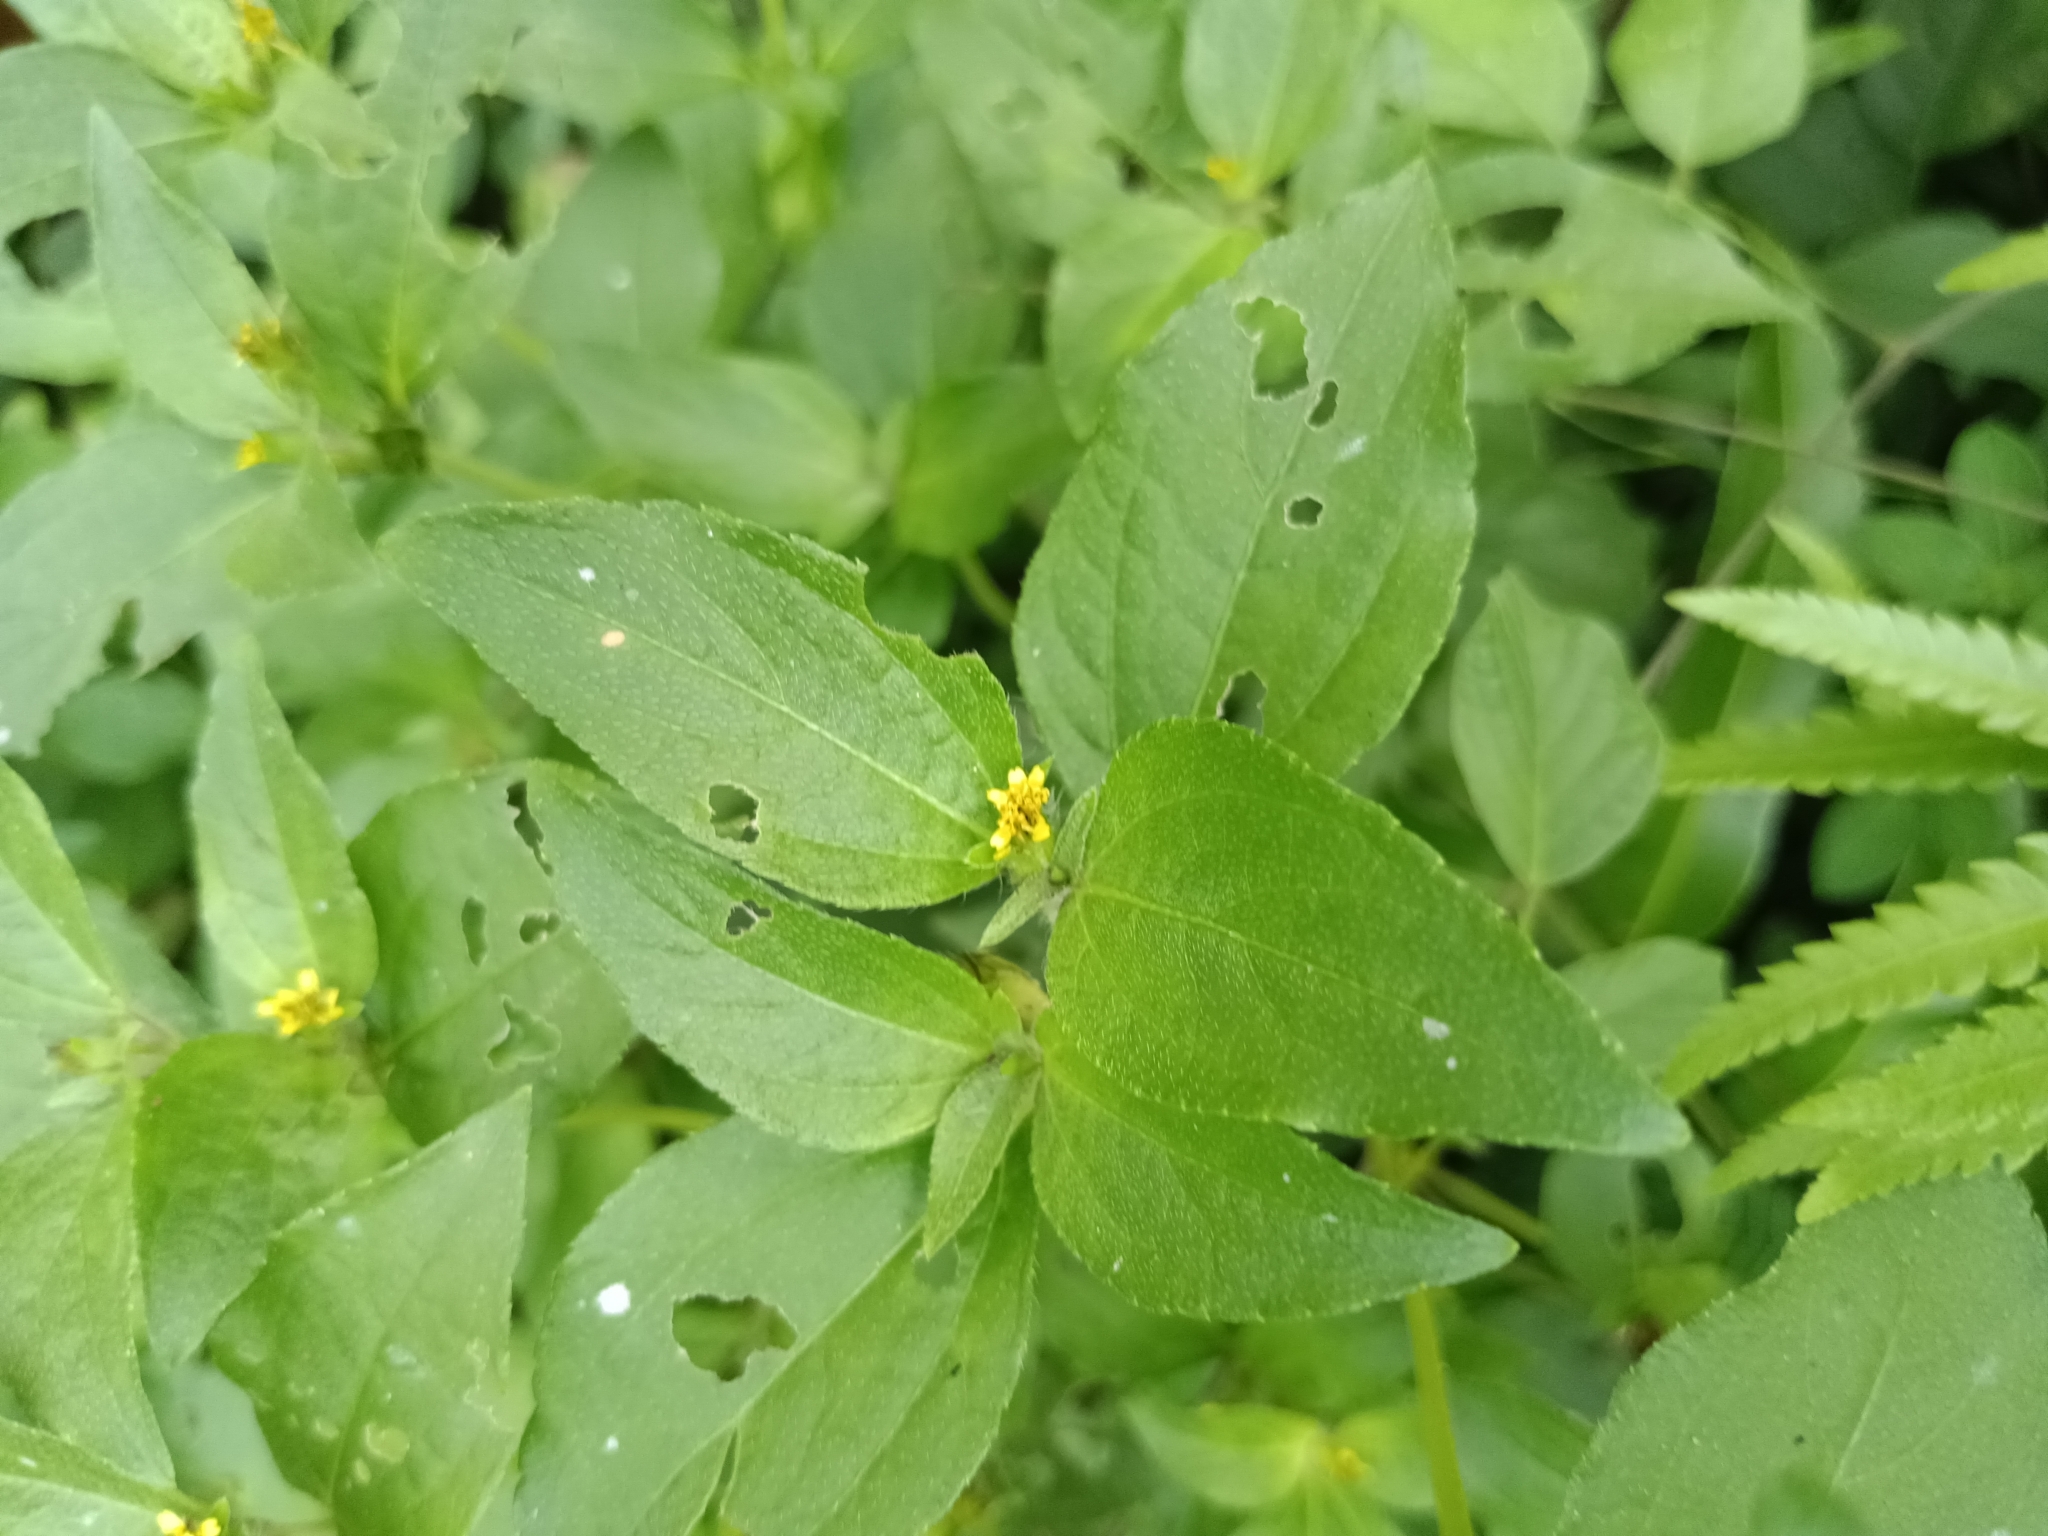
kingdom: Plantae
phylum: Tracheophyta
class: Magnoliopsida
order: Asterales
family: Asteraceae
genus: Synedrella
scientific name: Synedrella nodiflora
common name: Nodeweed
